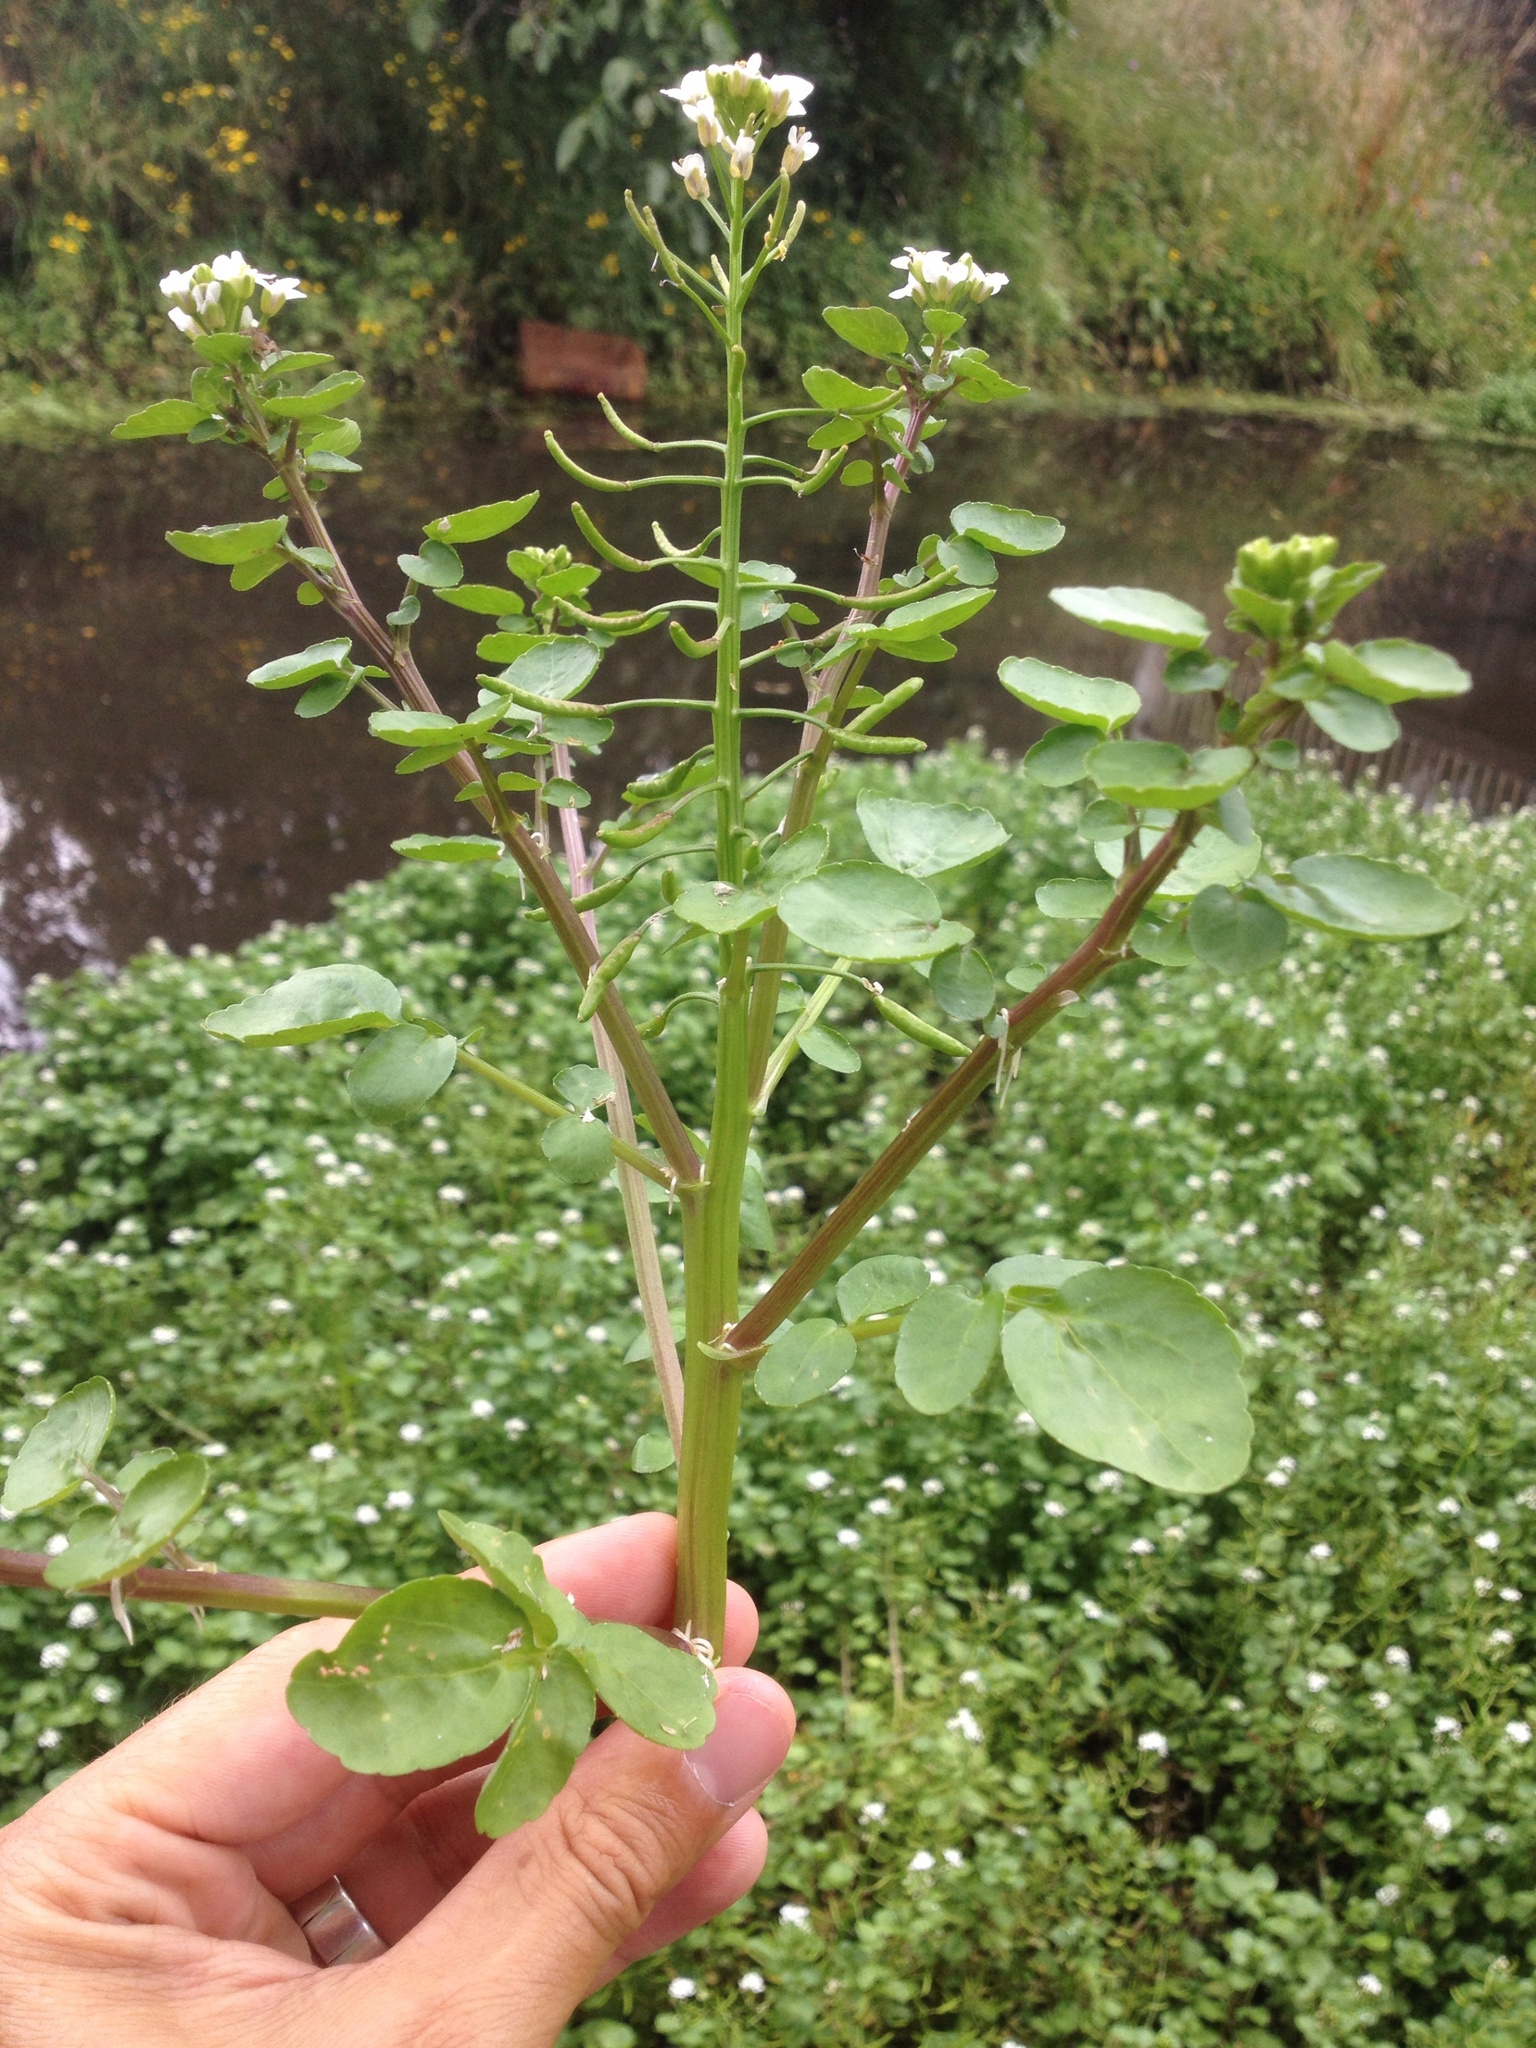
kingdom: Plantae
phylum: Tracheophyta
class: Magnoliopsida
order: Brassicales
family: Brassicaceae
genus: Nasturtium
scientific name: Nasturtium officinale
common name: Watercress
